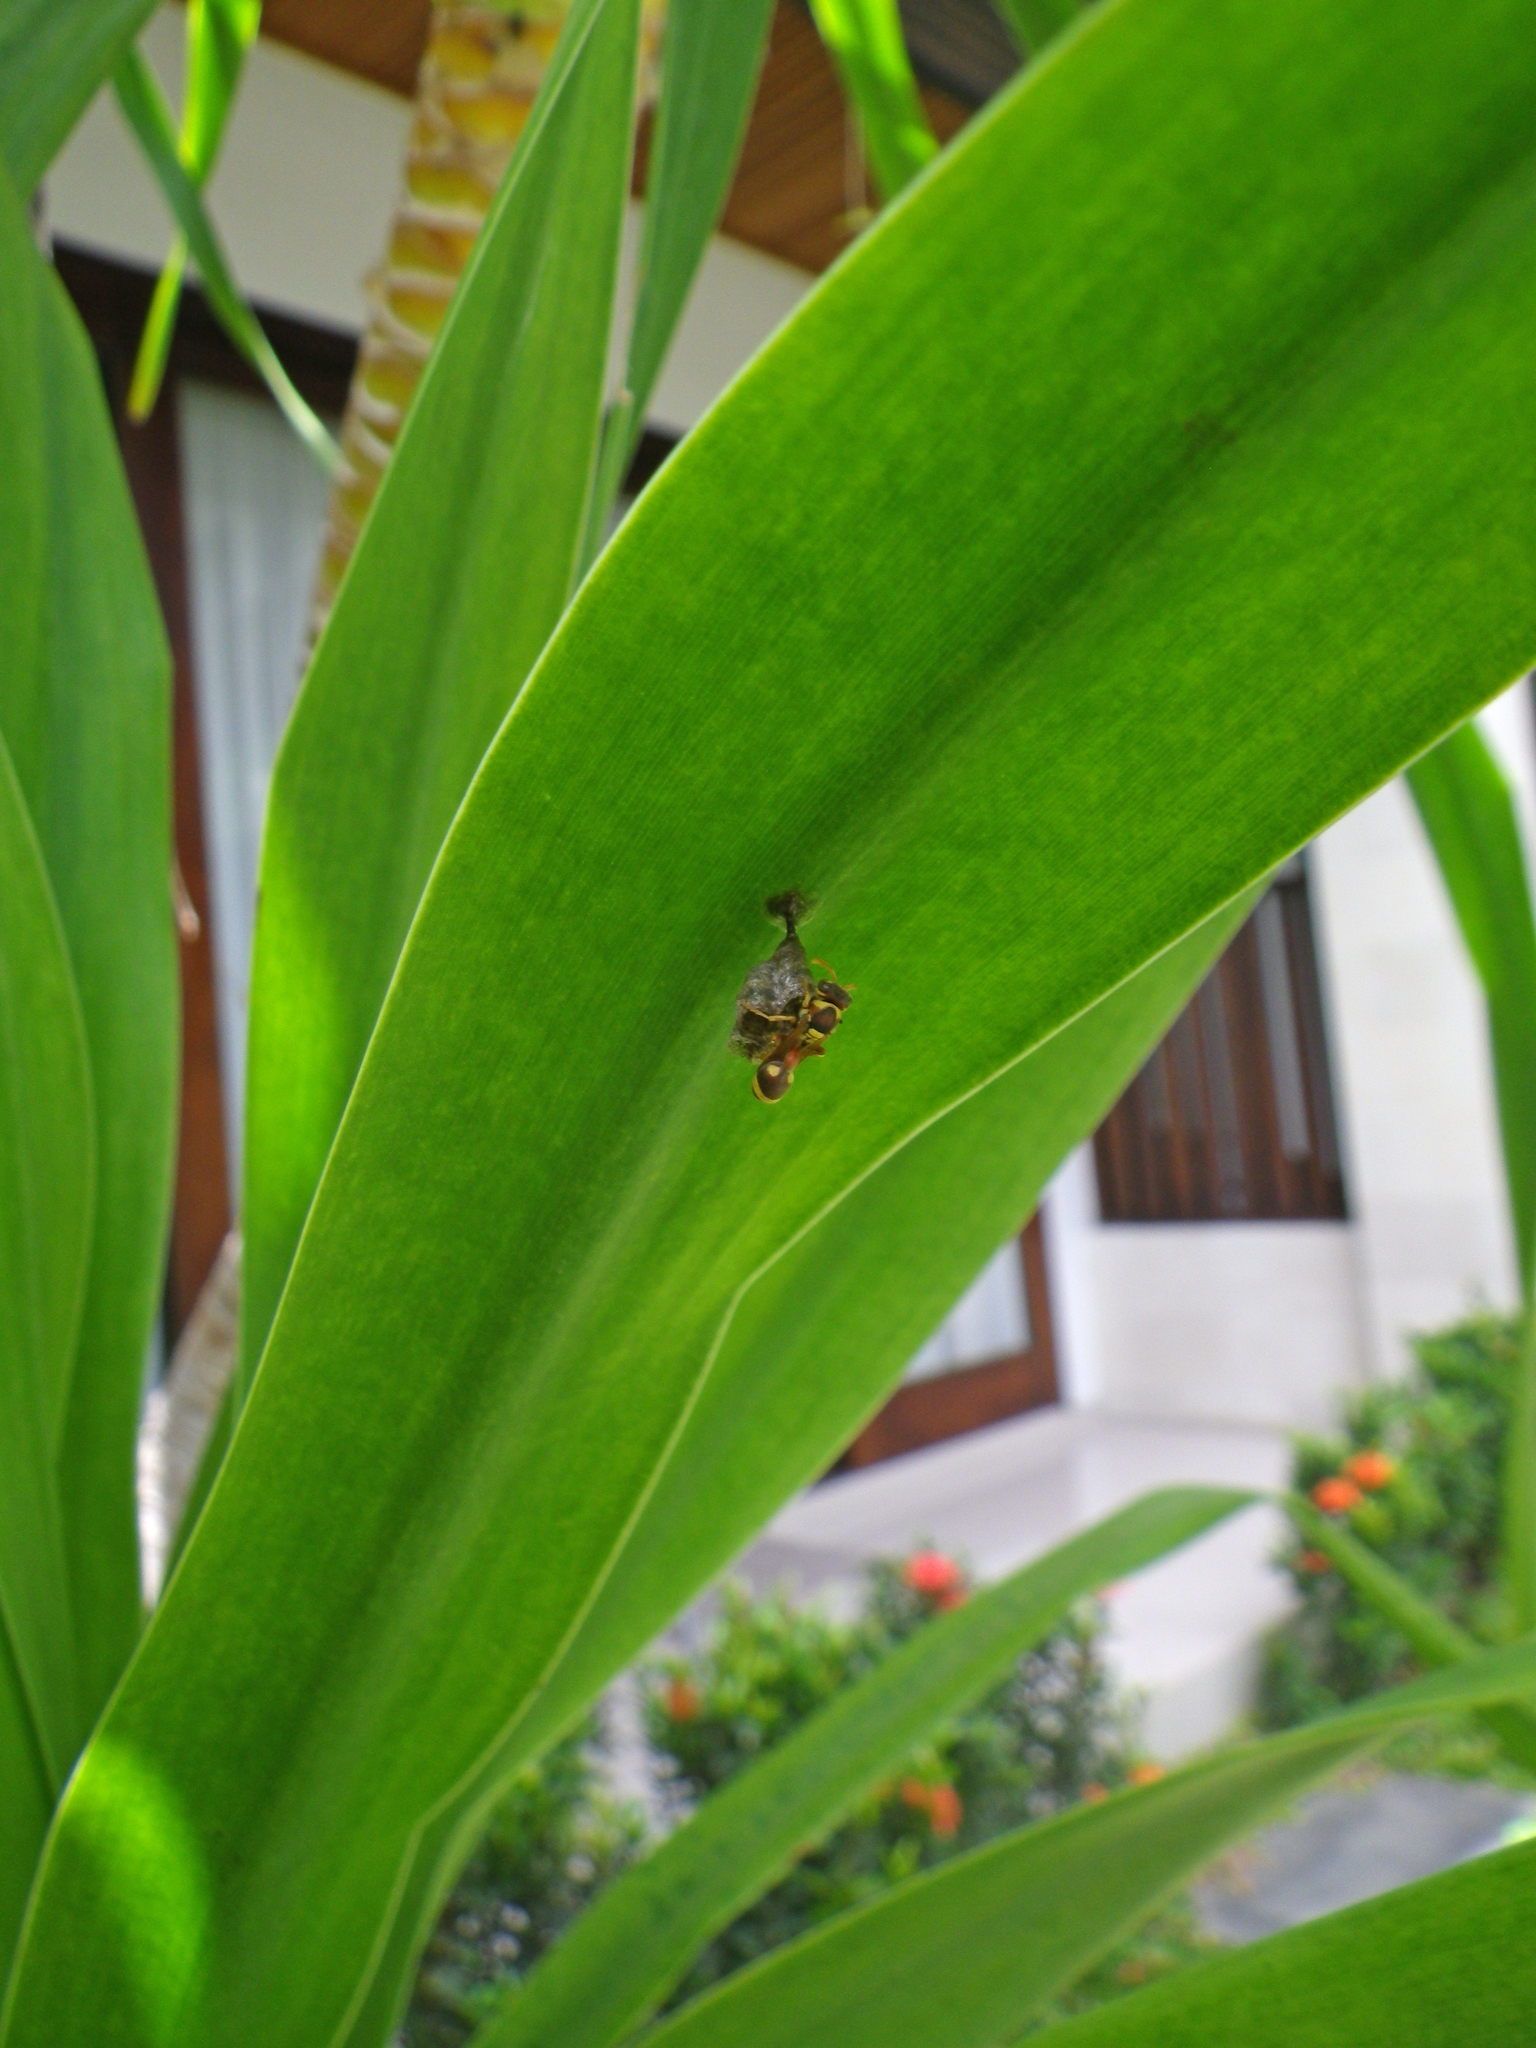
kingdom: Animalia
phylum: Arthropoda
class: Insecta
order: Hymenoptera
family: Vespidae
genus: Ropalidia
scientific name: Ropalidia fasciata
